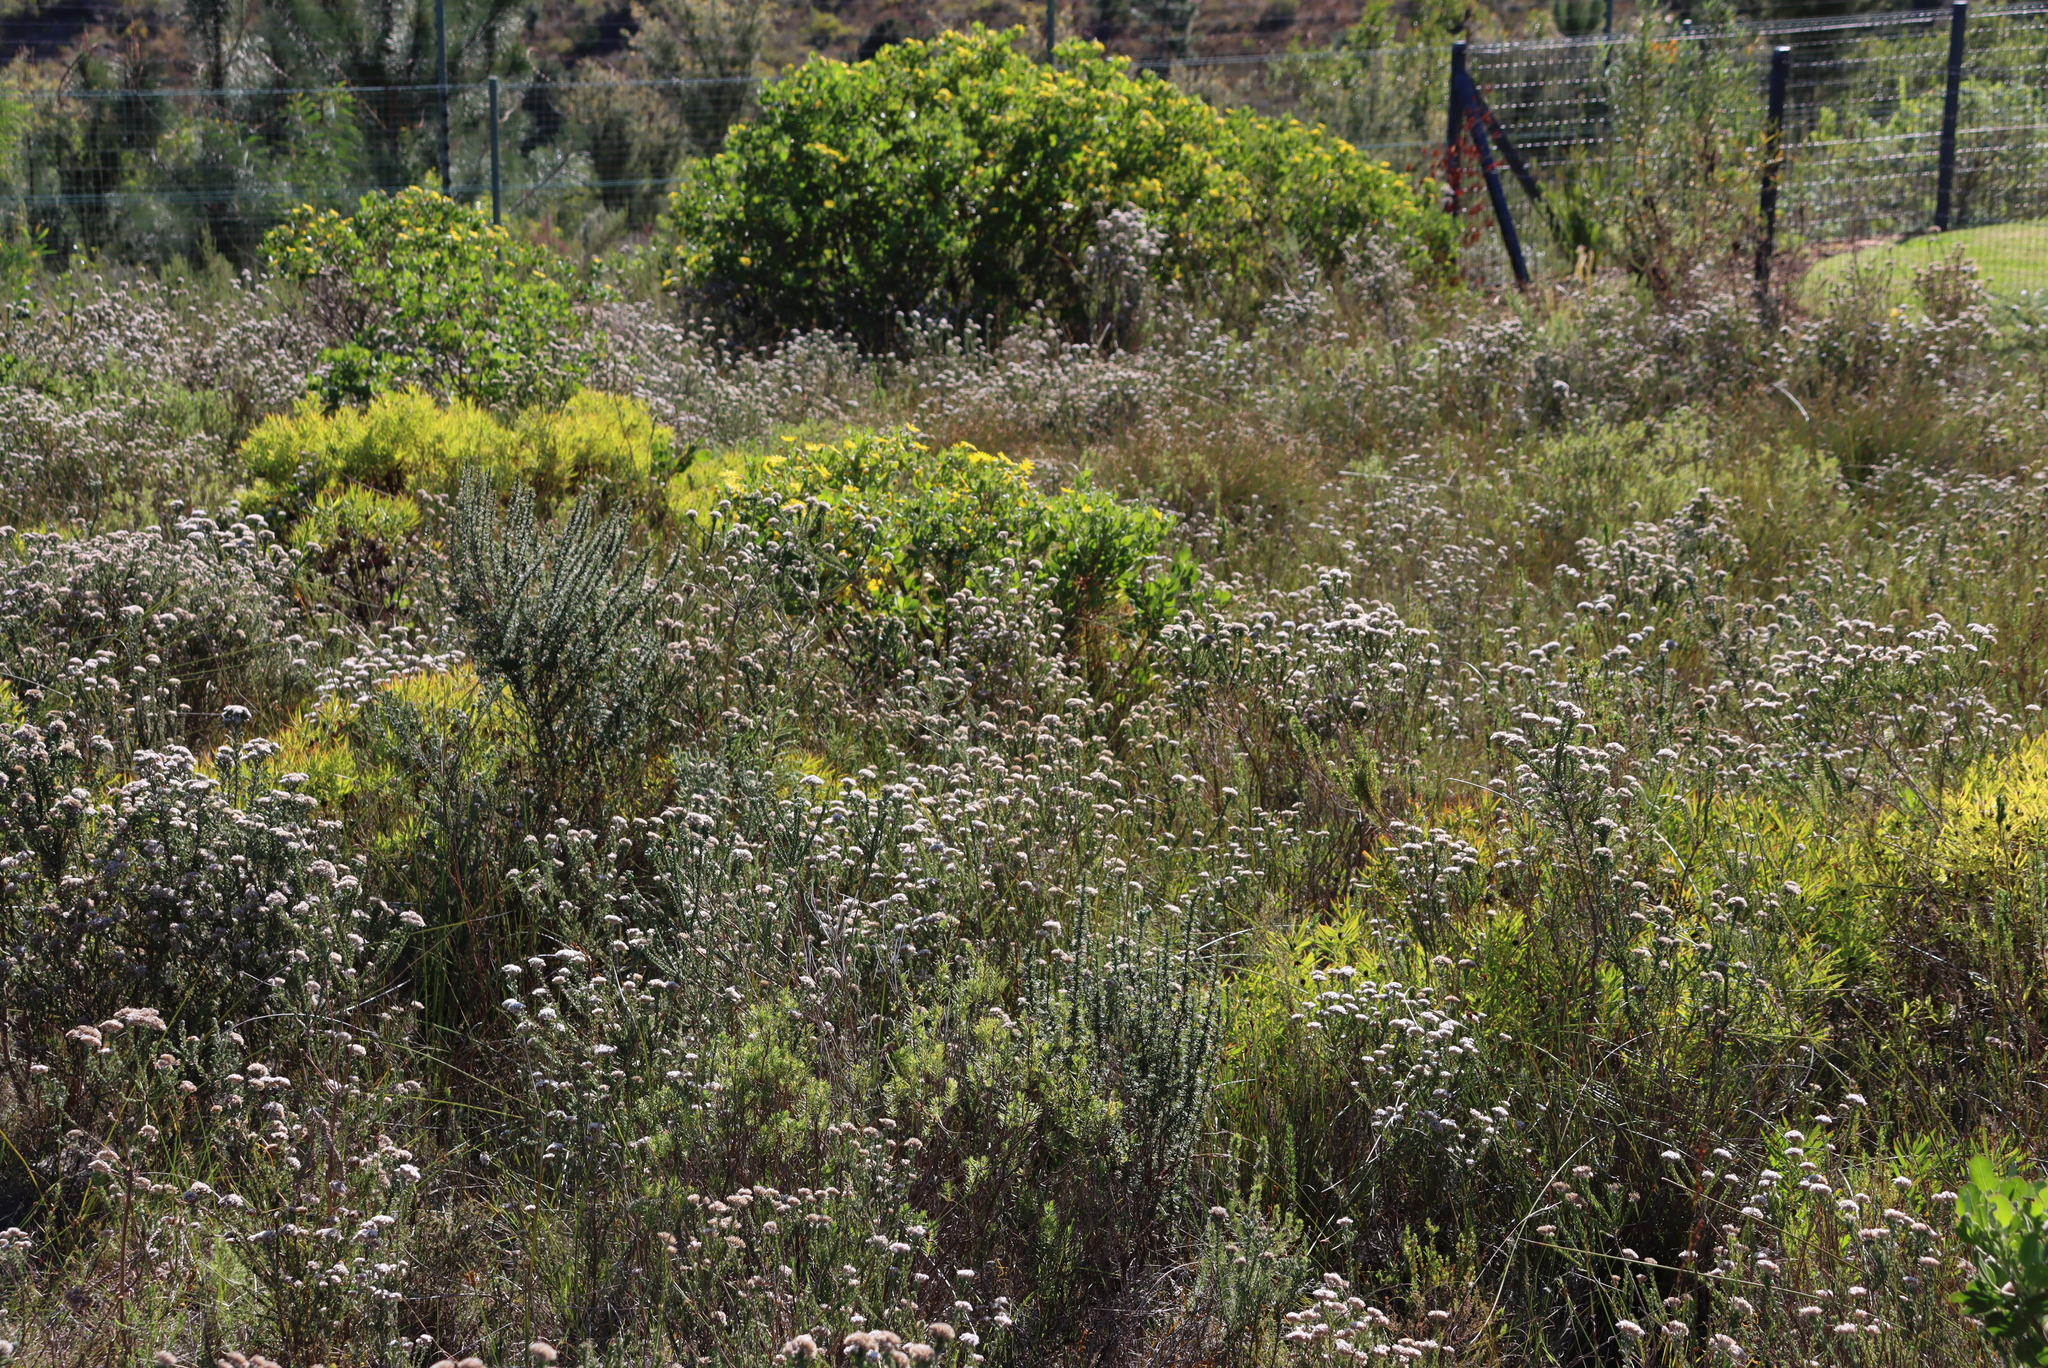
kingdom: Plantae
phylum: Tracheophyta
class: Magnoliopsida
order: Asterales
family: Asteraceae
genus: Metalasia
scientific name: Metalasia pungens
